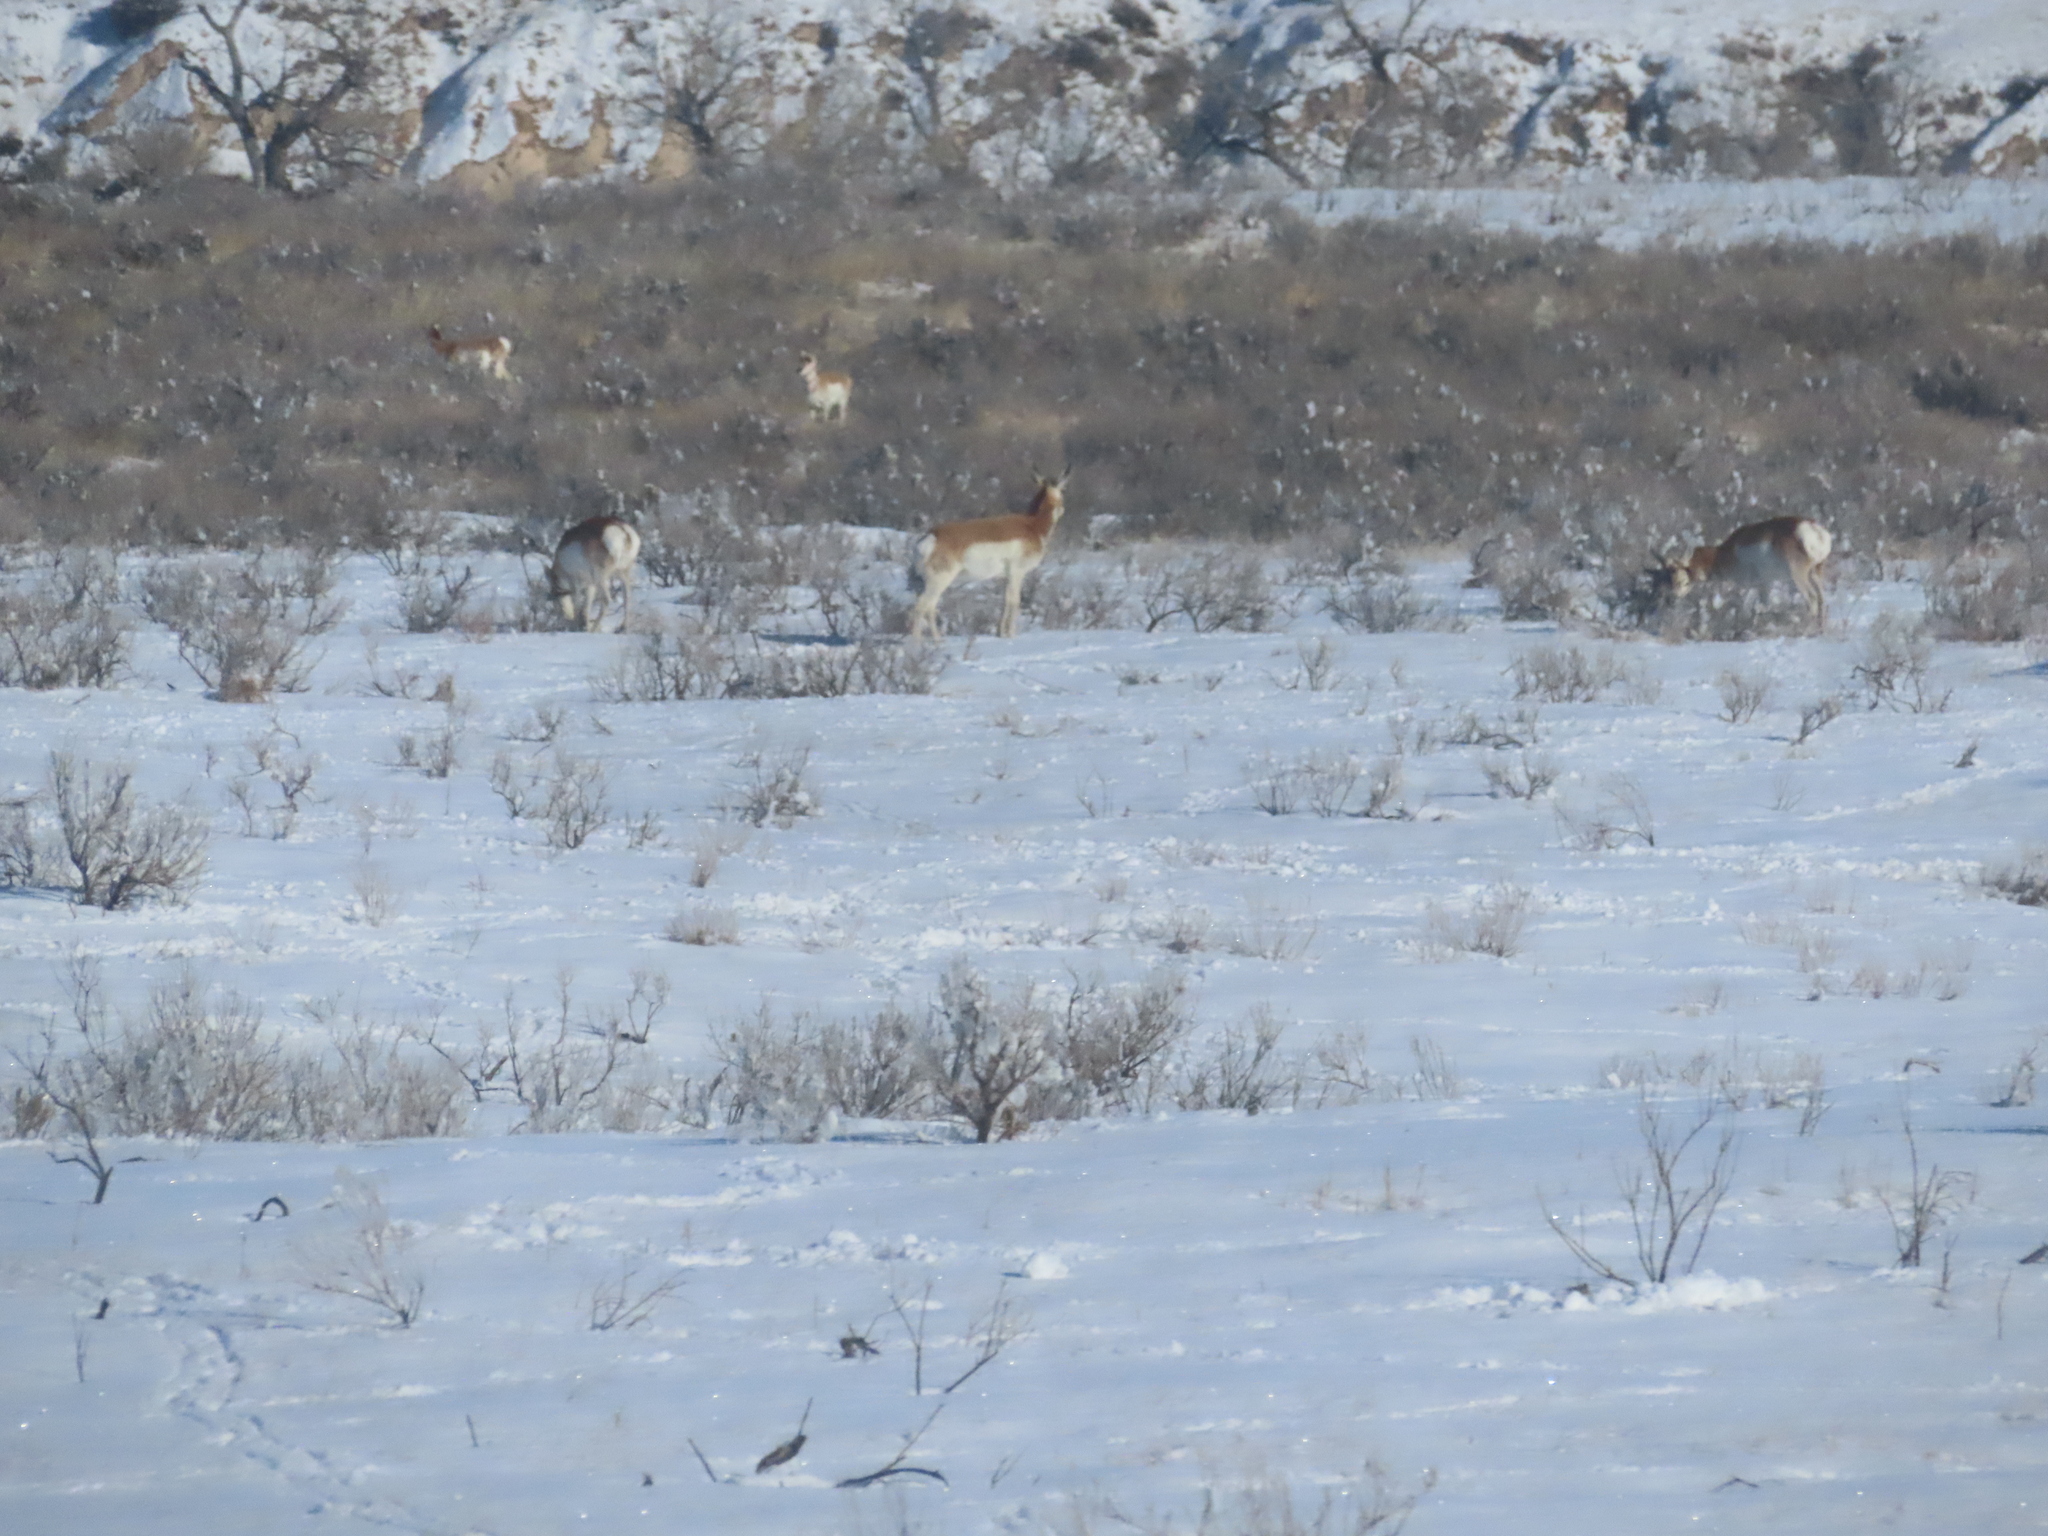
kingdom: Animalia
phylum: Chordata
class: Mammalia
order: Artiodactyla
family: Antilocapridae
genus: Antilocapra
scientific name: Antilocapra americana
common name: Pronghorn
